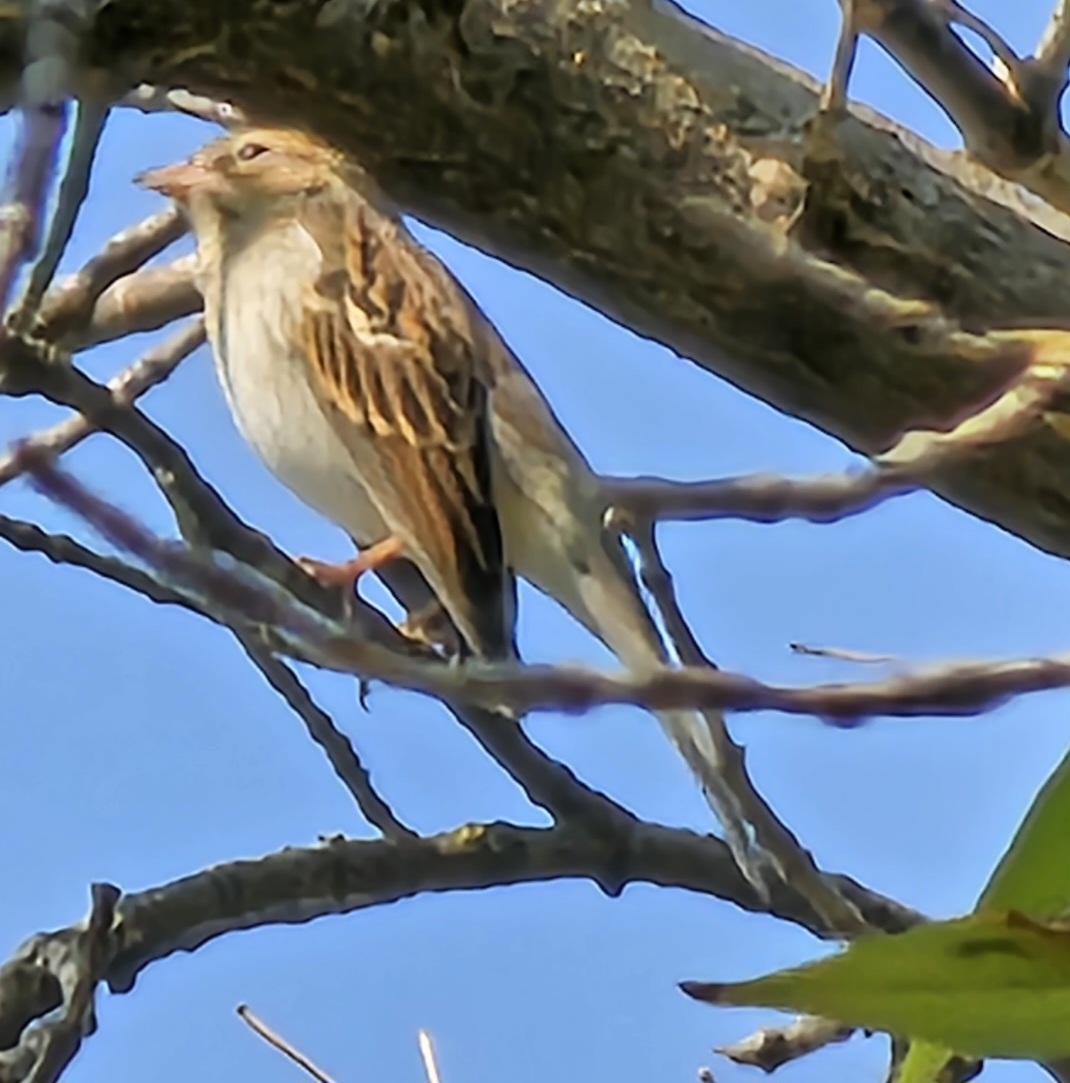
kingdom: Animalia
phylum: Chordata
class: Aves
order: Passeriformes
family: Passerellidae
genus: Spizella
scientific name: Spizella passerina
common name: Chipping sparrow
